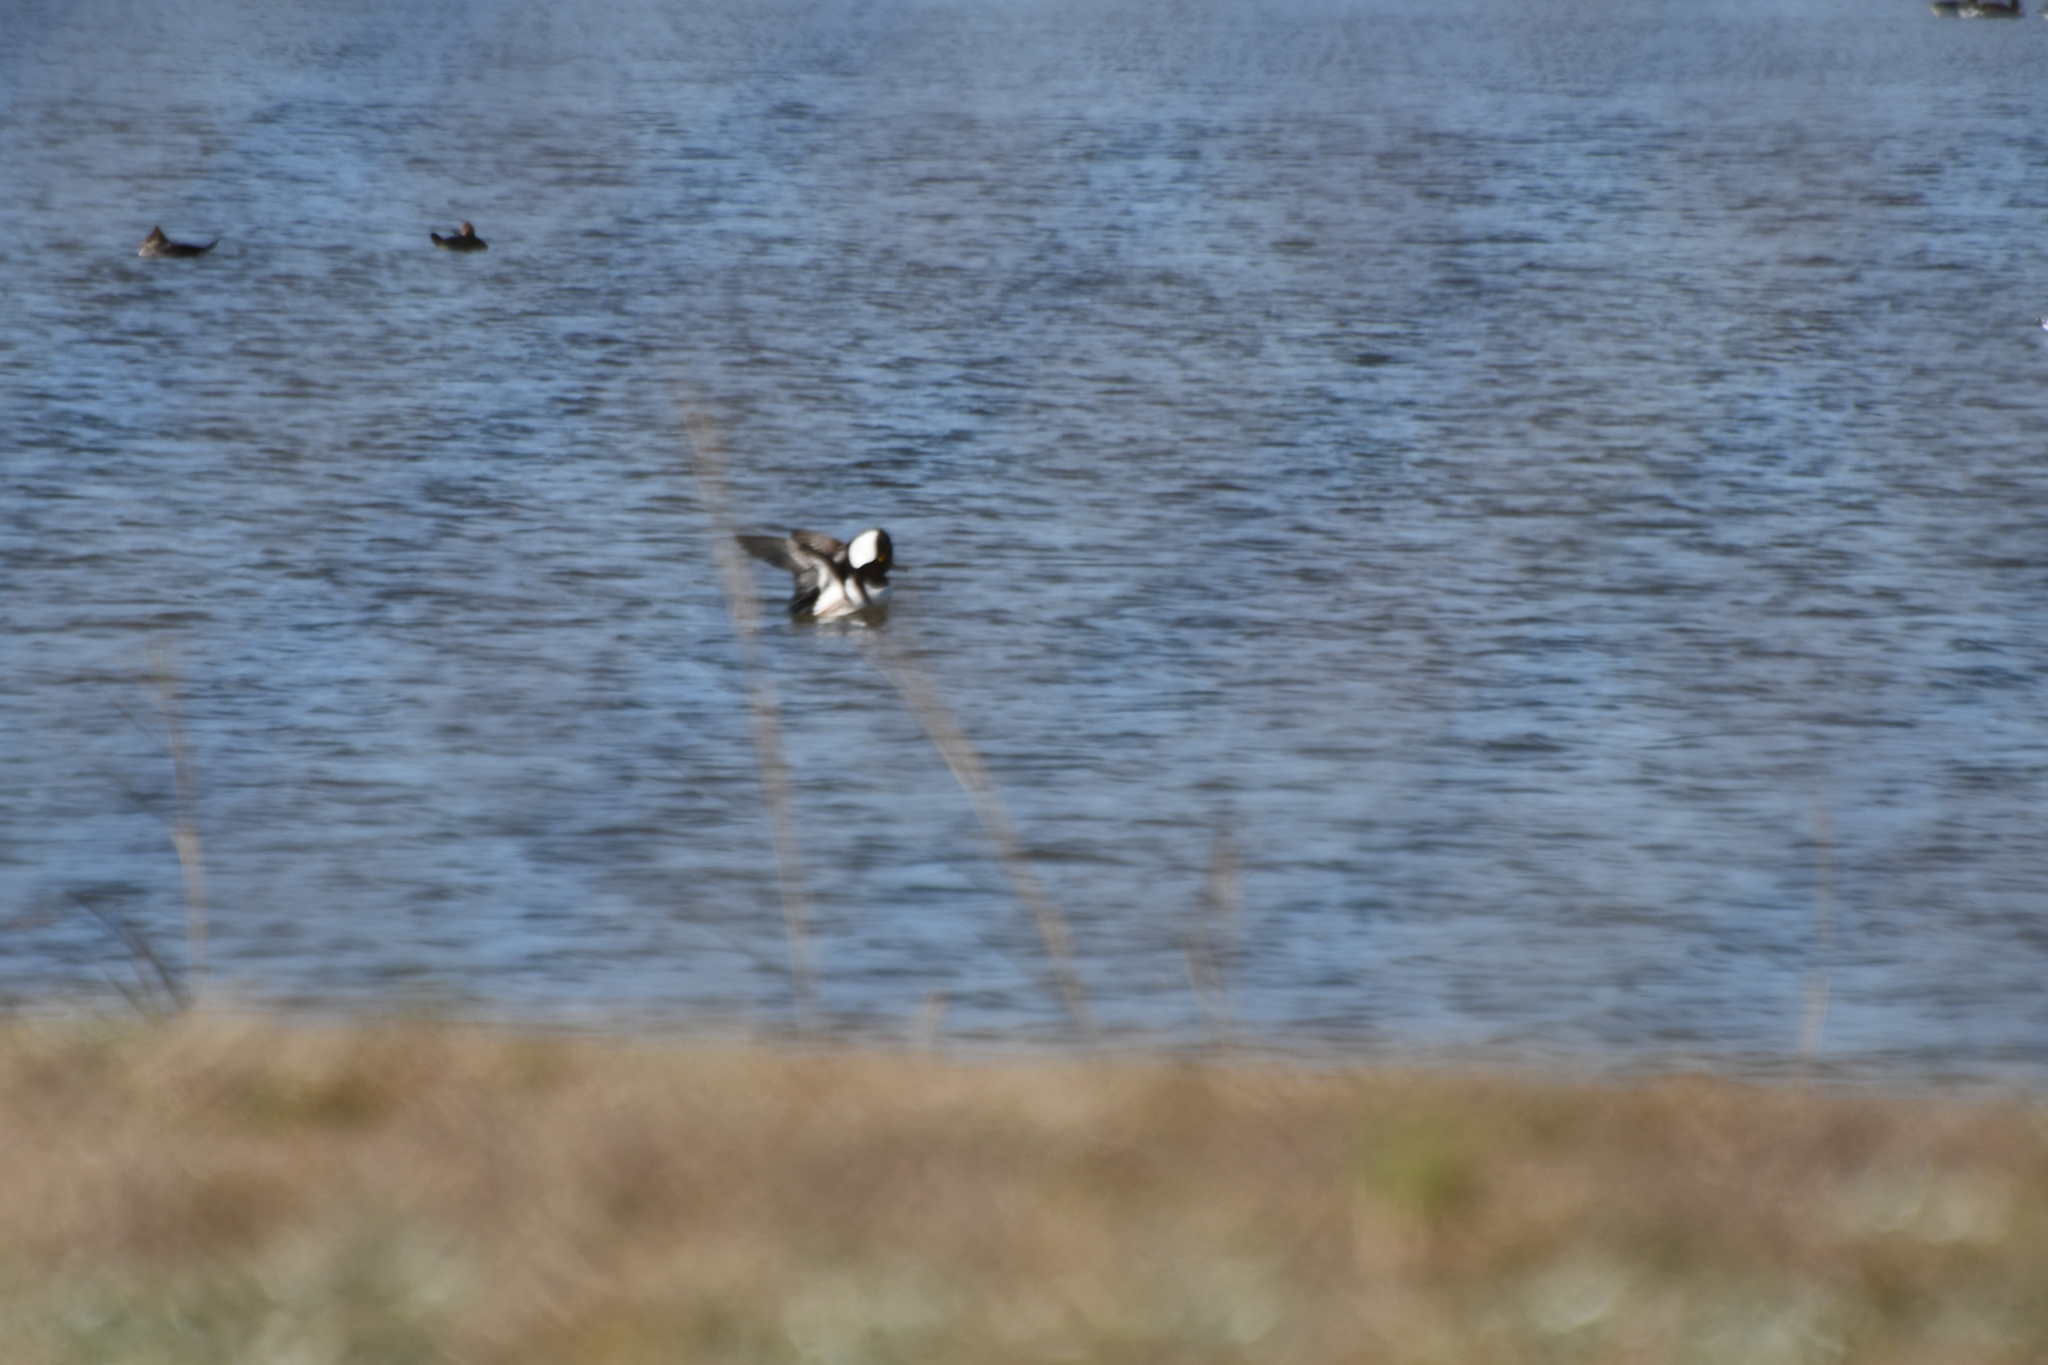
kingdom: Animalia
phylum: Chordata
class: Aves
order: Anseriformes
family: Anatidae
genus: Lophodytes
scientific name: Lophodytes cucullatus
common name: Hooded merganser
